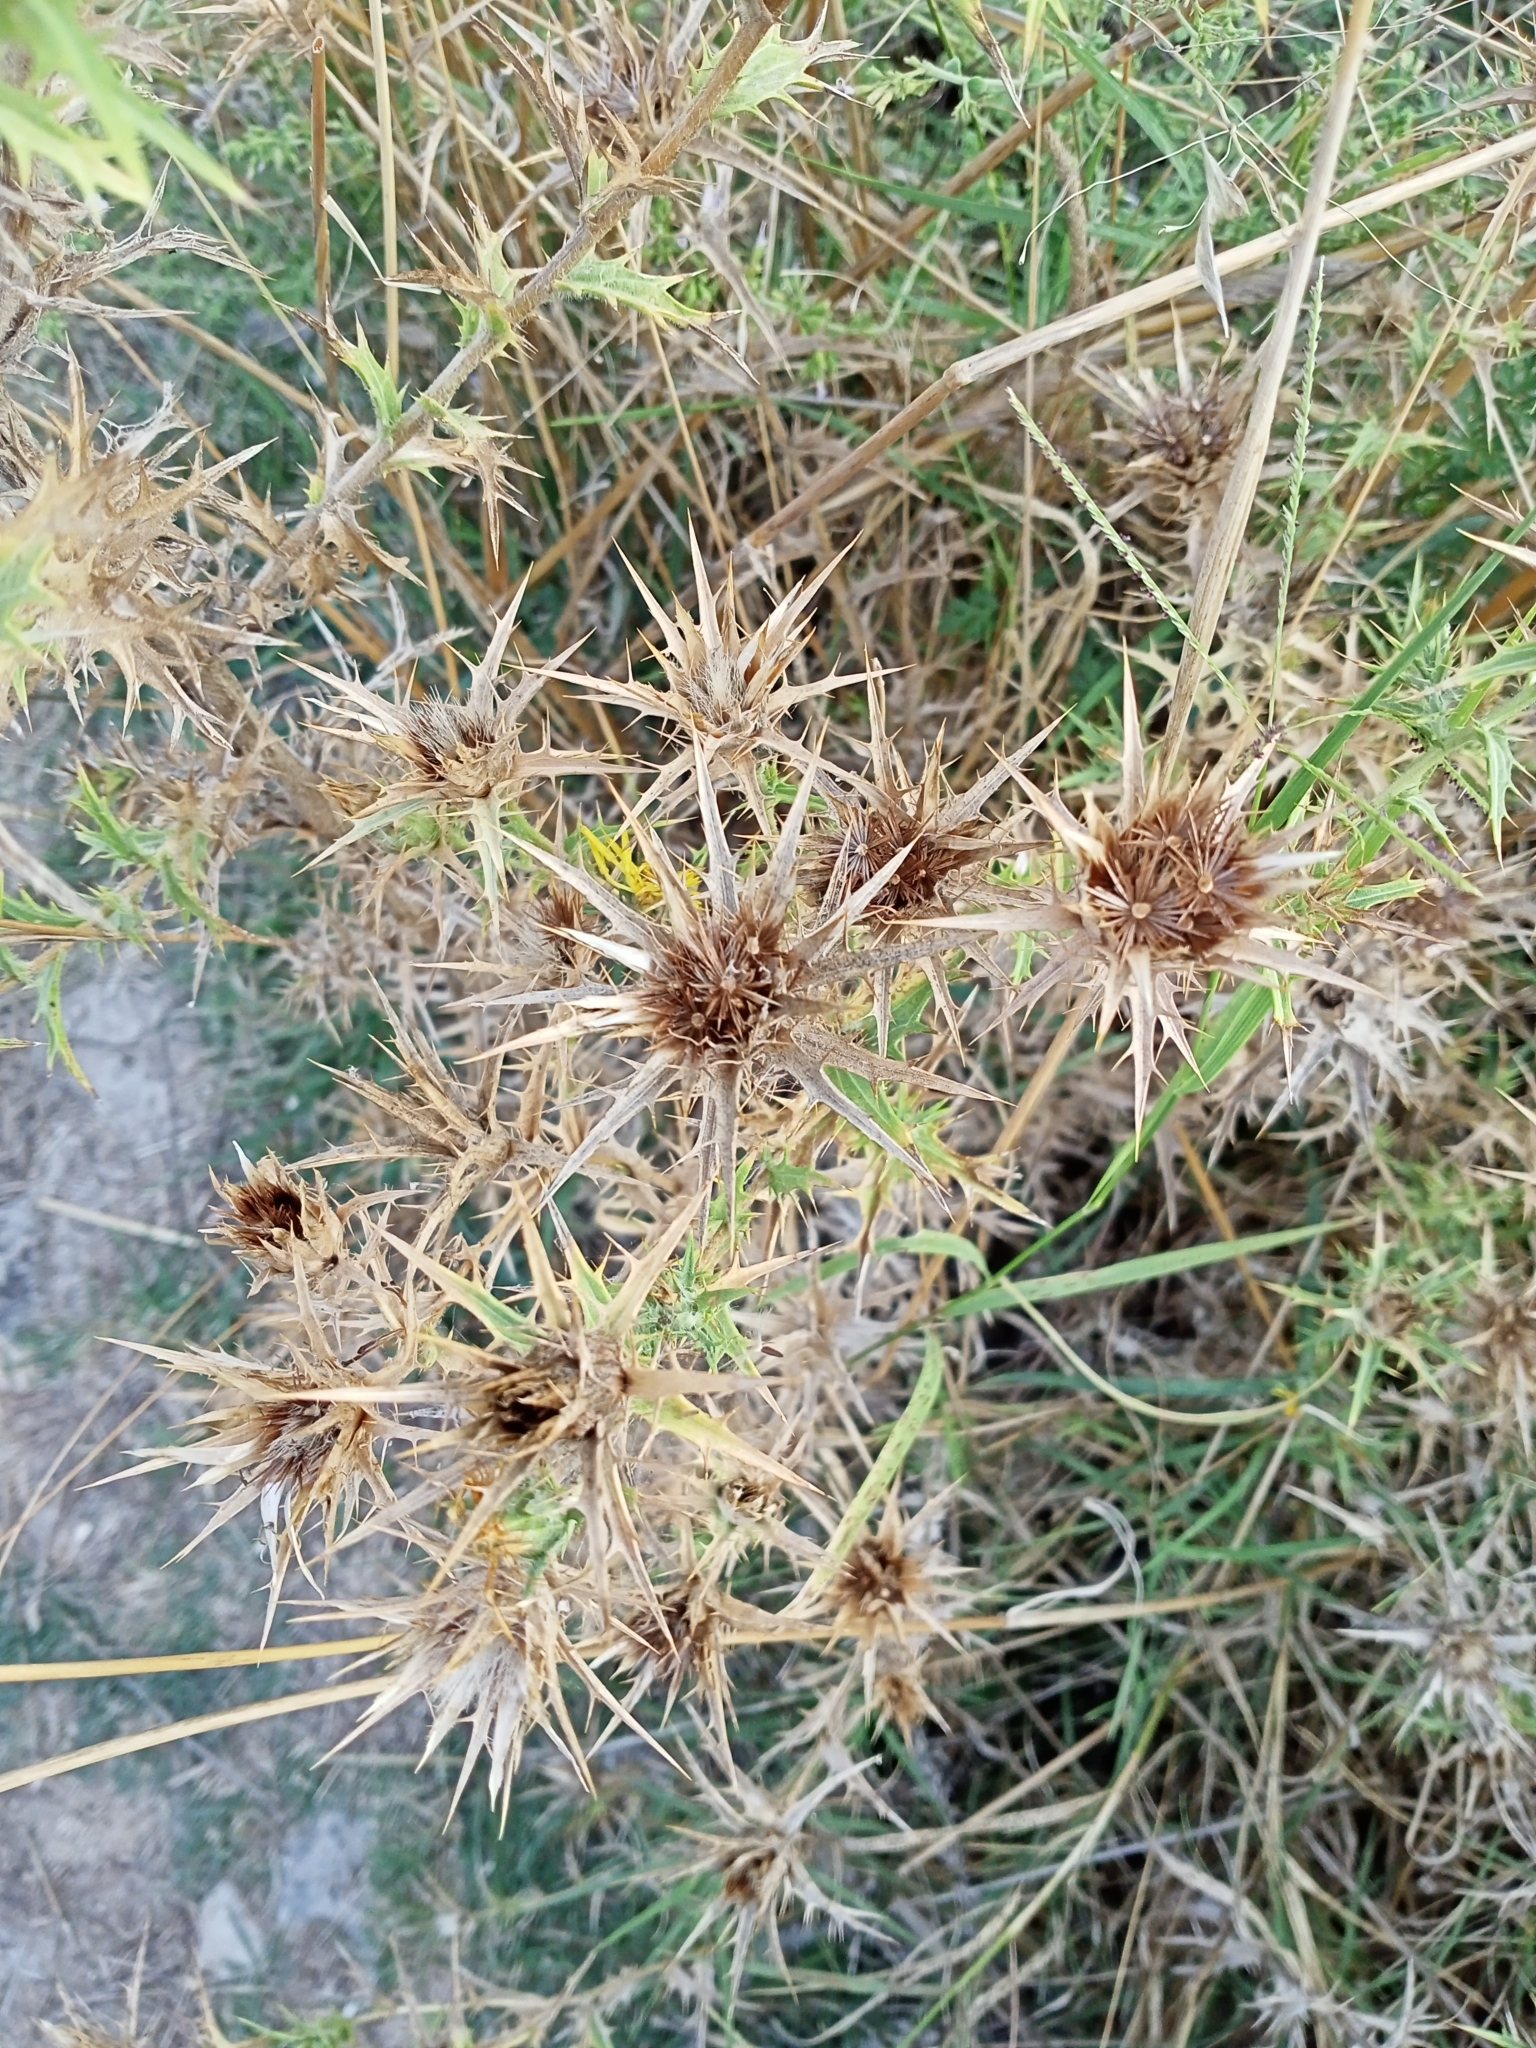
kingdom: Plantae
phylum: Tracheophyta
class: Magnoliopsida
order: Asterales
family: Asteraceae
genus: Carthamus
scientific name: Carthamus lanatus
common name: Downy safflower
